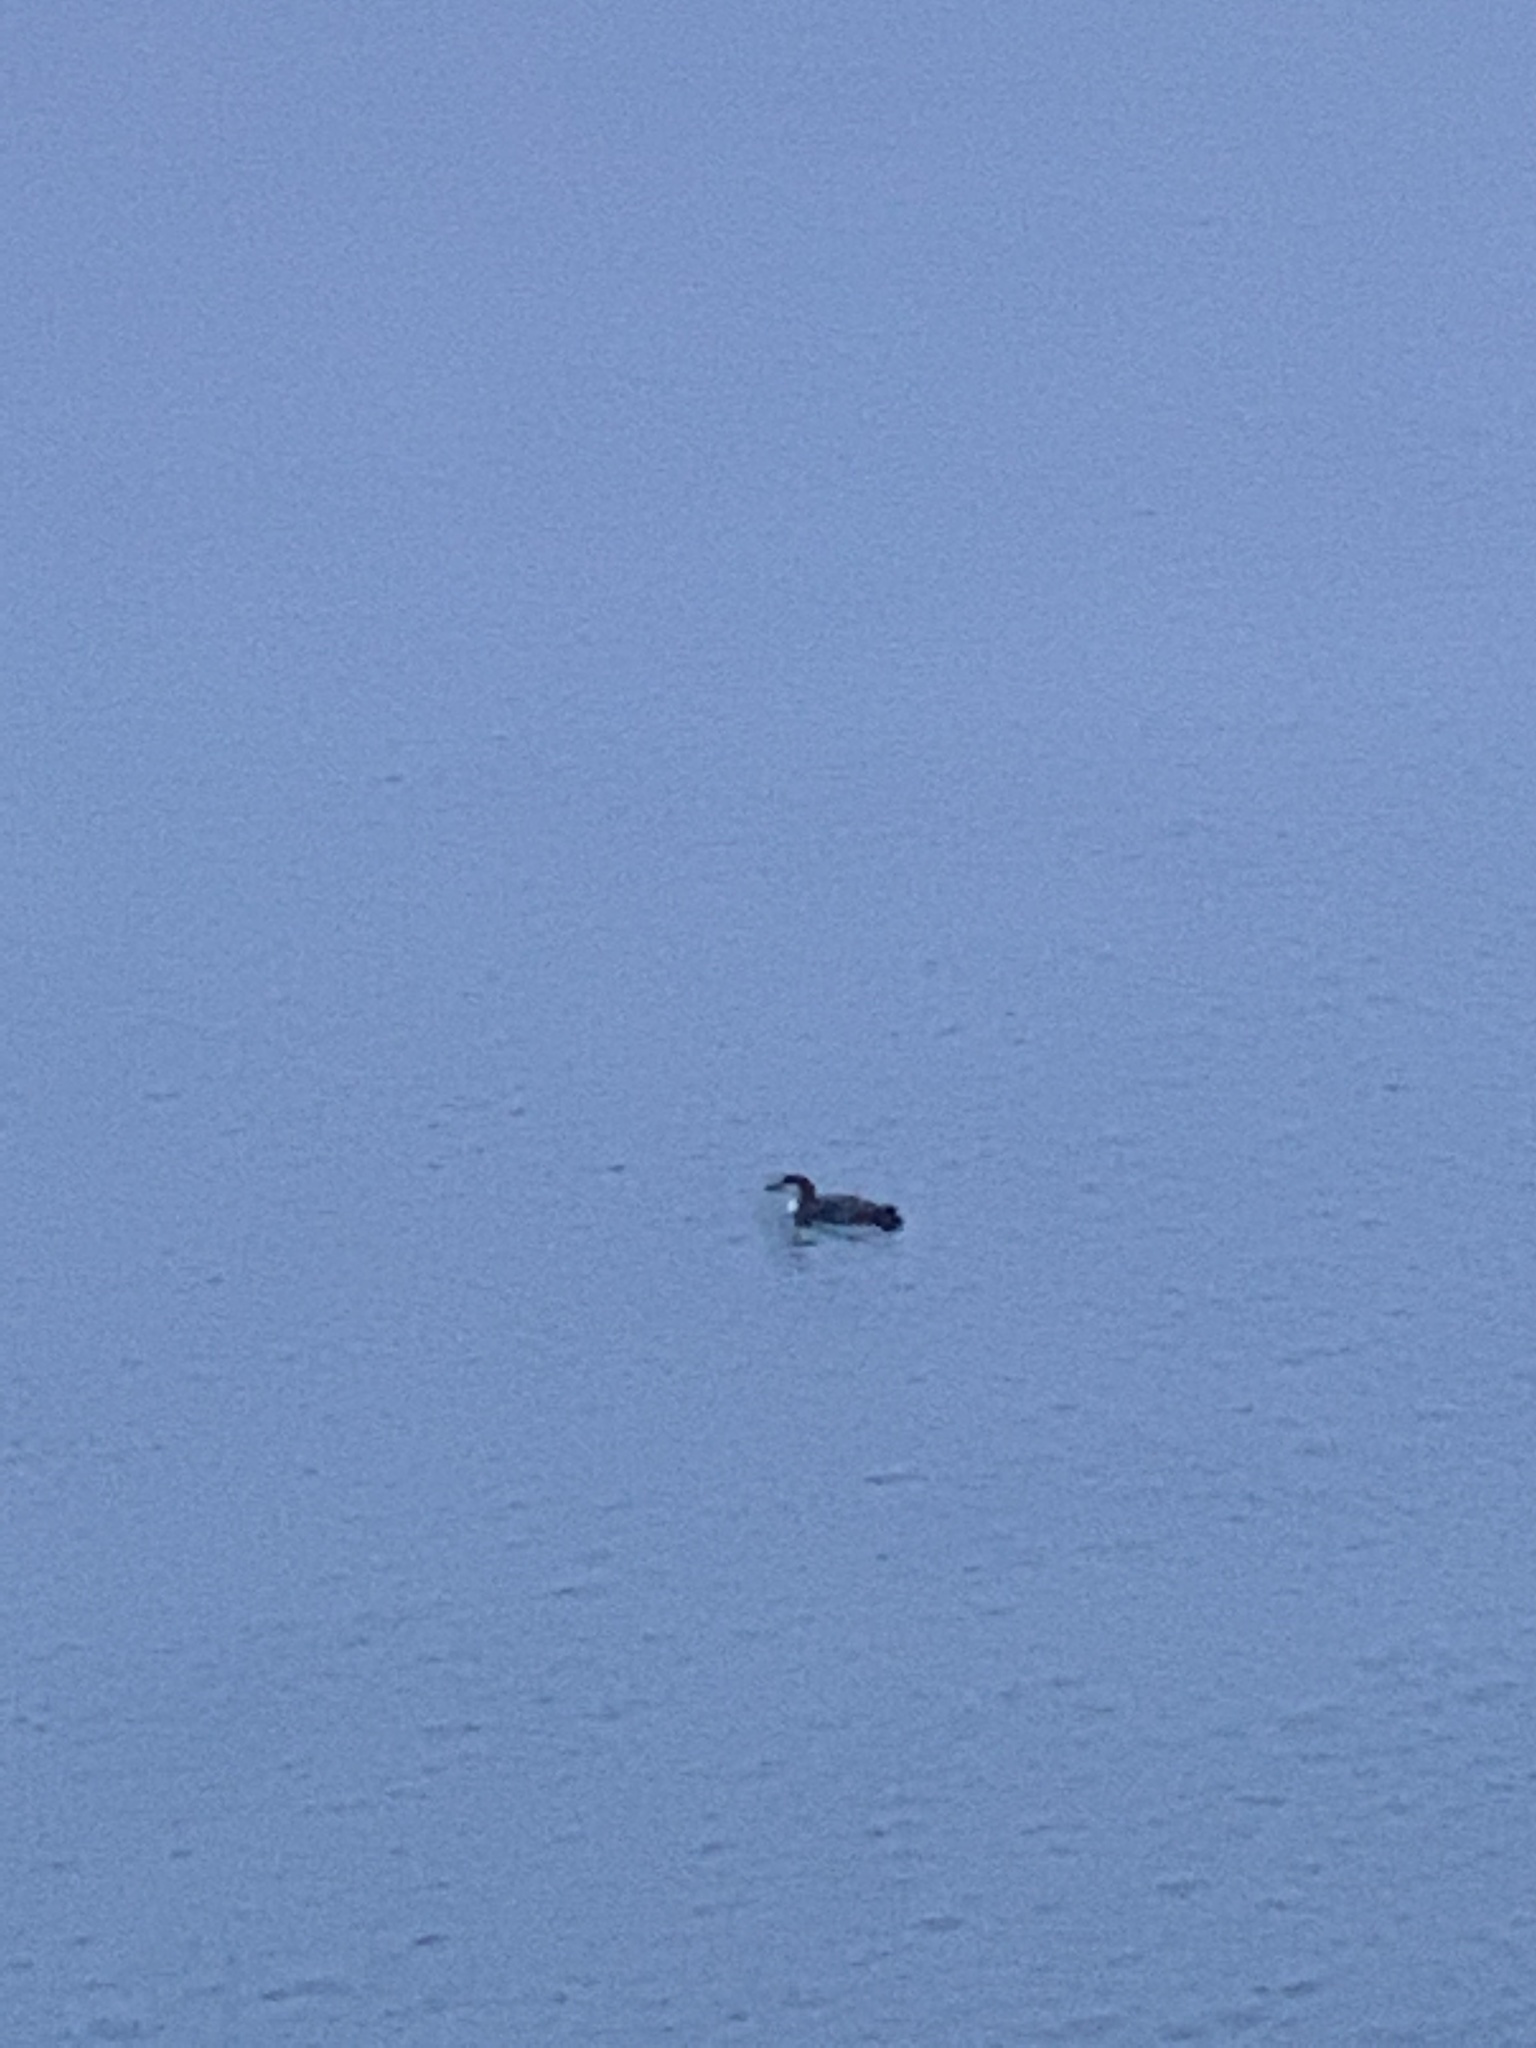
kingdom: Animalia
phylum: Chordata
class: Aves
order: Gaviiformes
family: Gaviidae
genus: Gavia
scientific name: Gavia pacifica
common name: Pacific loon
